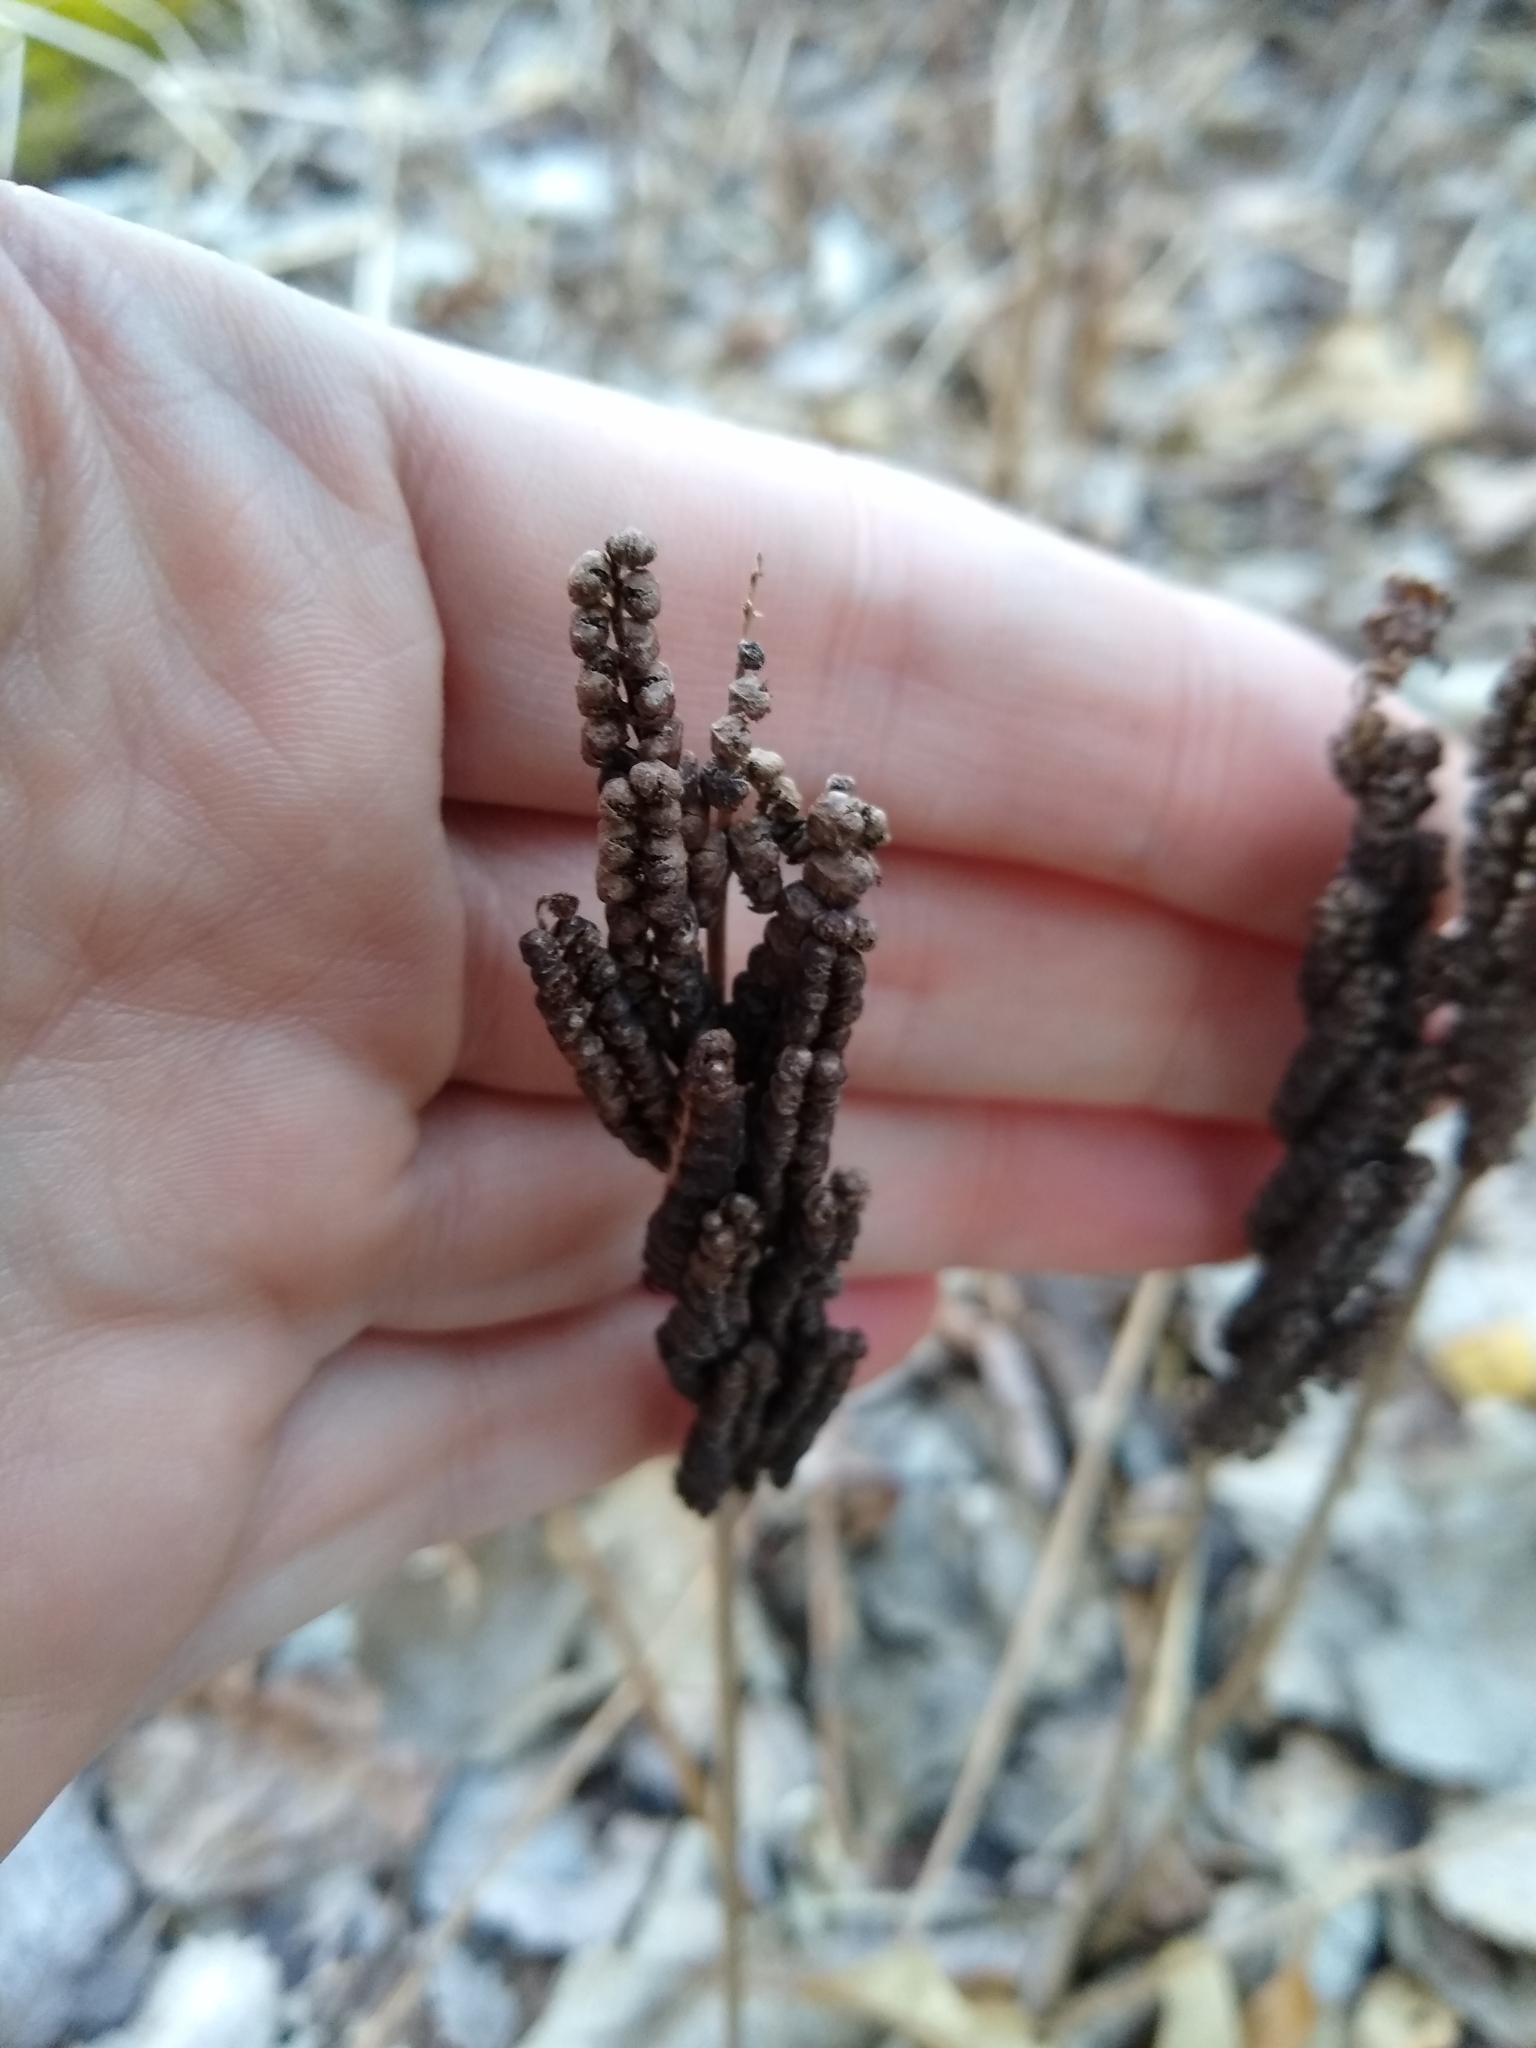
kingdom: Plantae
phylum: Tracheophyta
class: Polypodiopsida
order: Polypodiales
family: Onocleaceae
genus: Onoclea
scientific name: Onoclea sensibilis
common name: Sensitive fern
